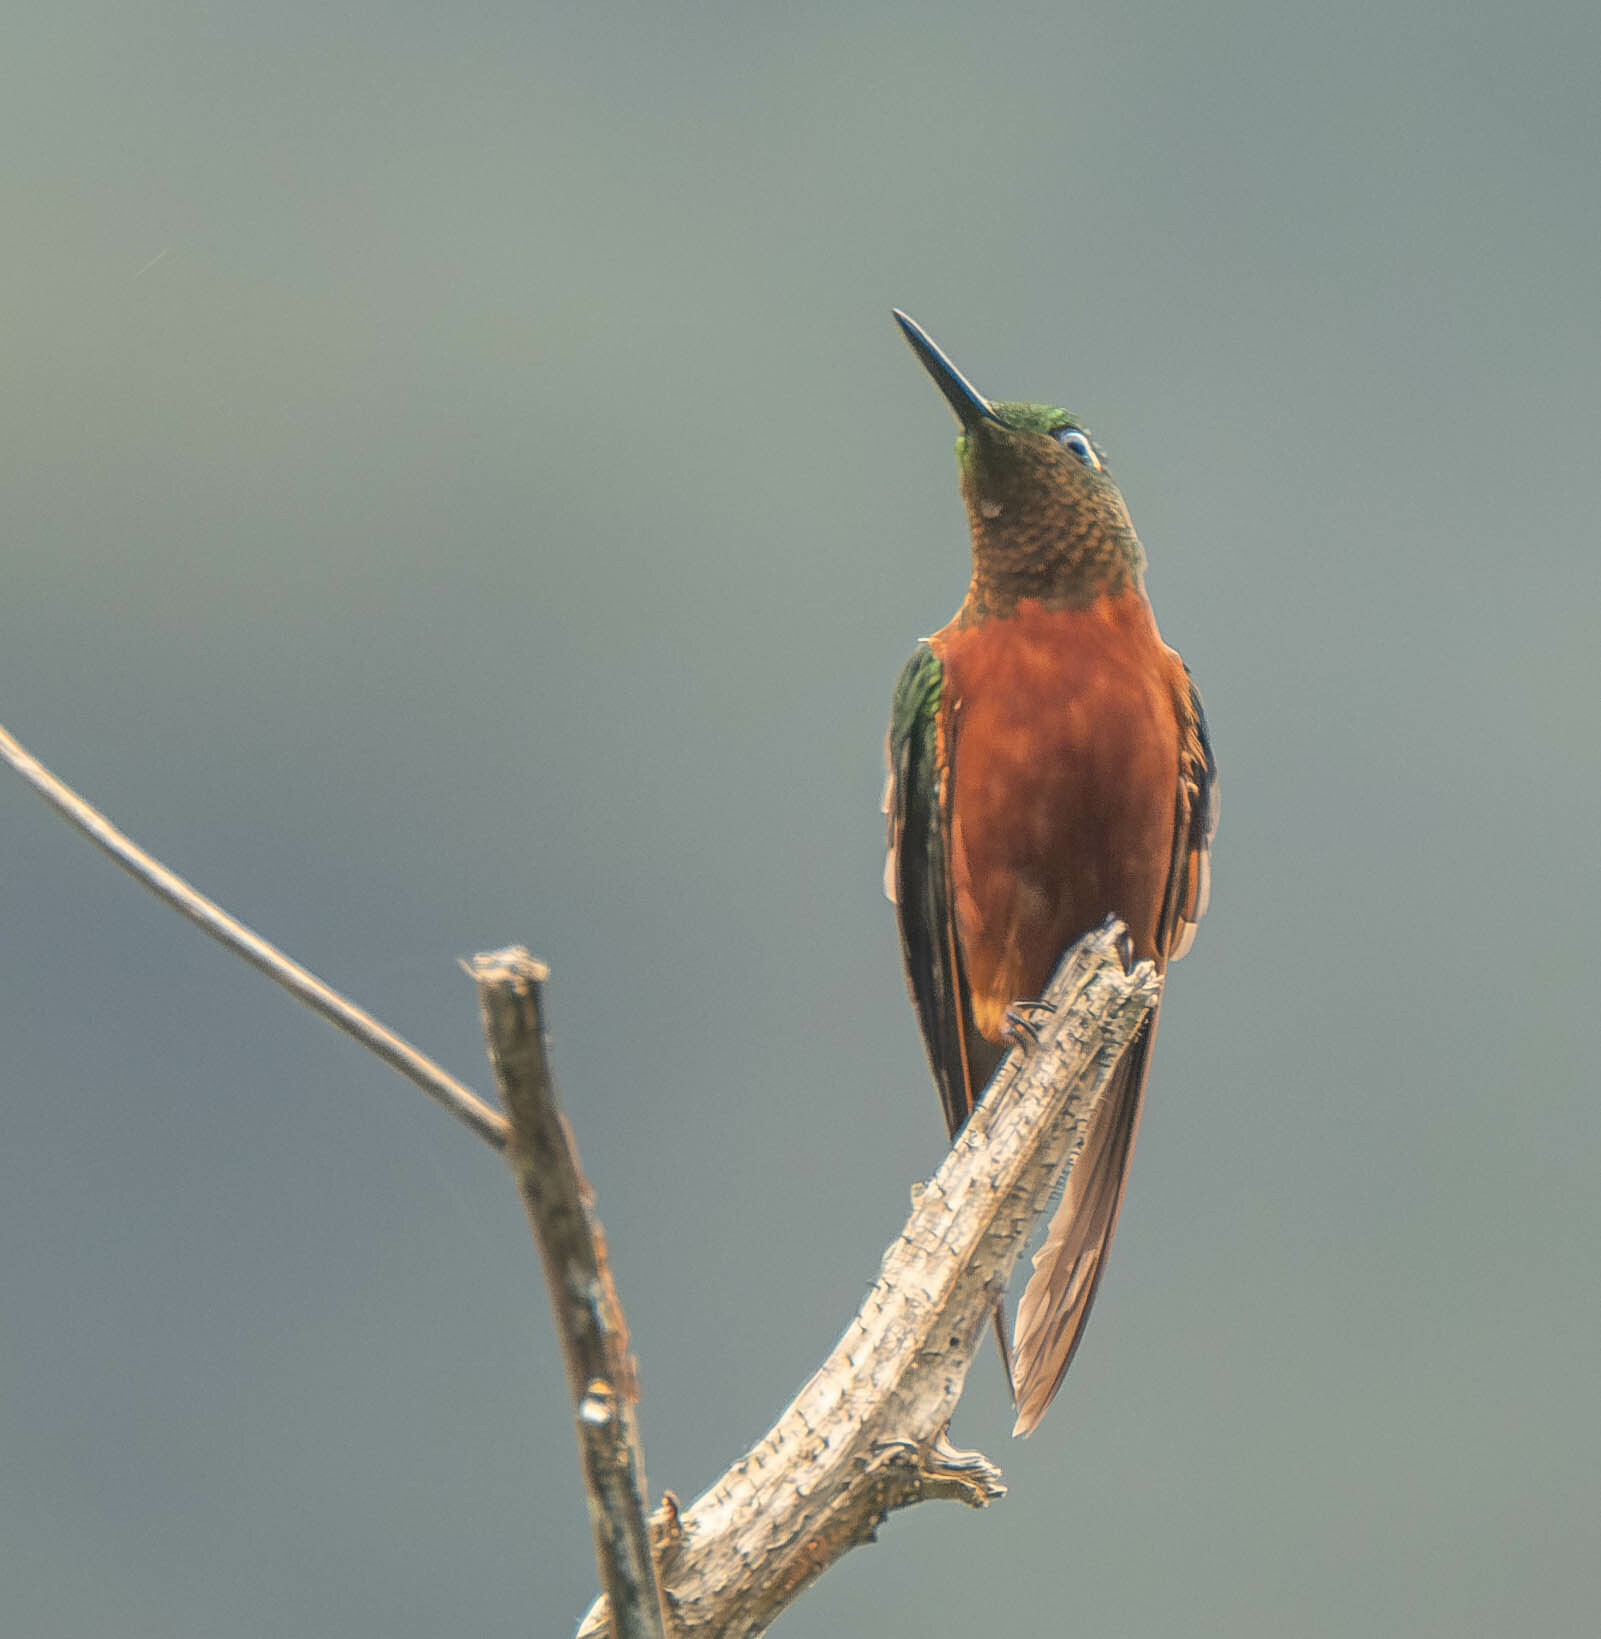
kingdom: Animalia
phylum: Chordata
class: Aves
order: Apodiformes
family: Trochilidae
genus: Boissonneaua
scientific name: Boissonneaua matthewsii
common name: Chestnut-breasted coronet
